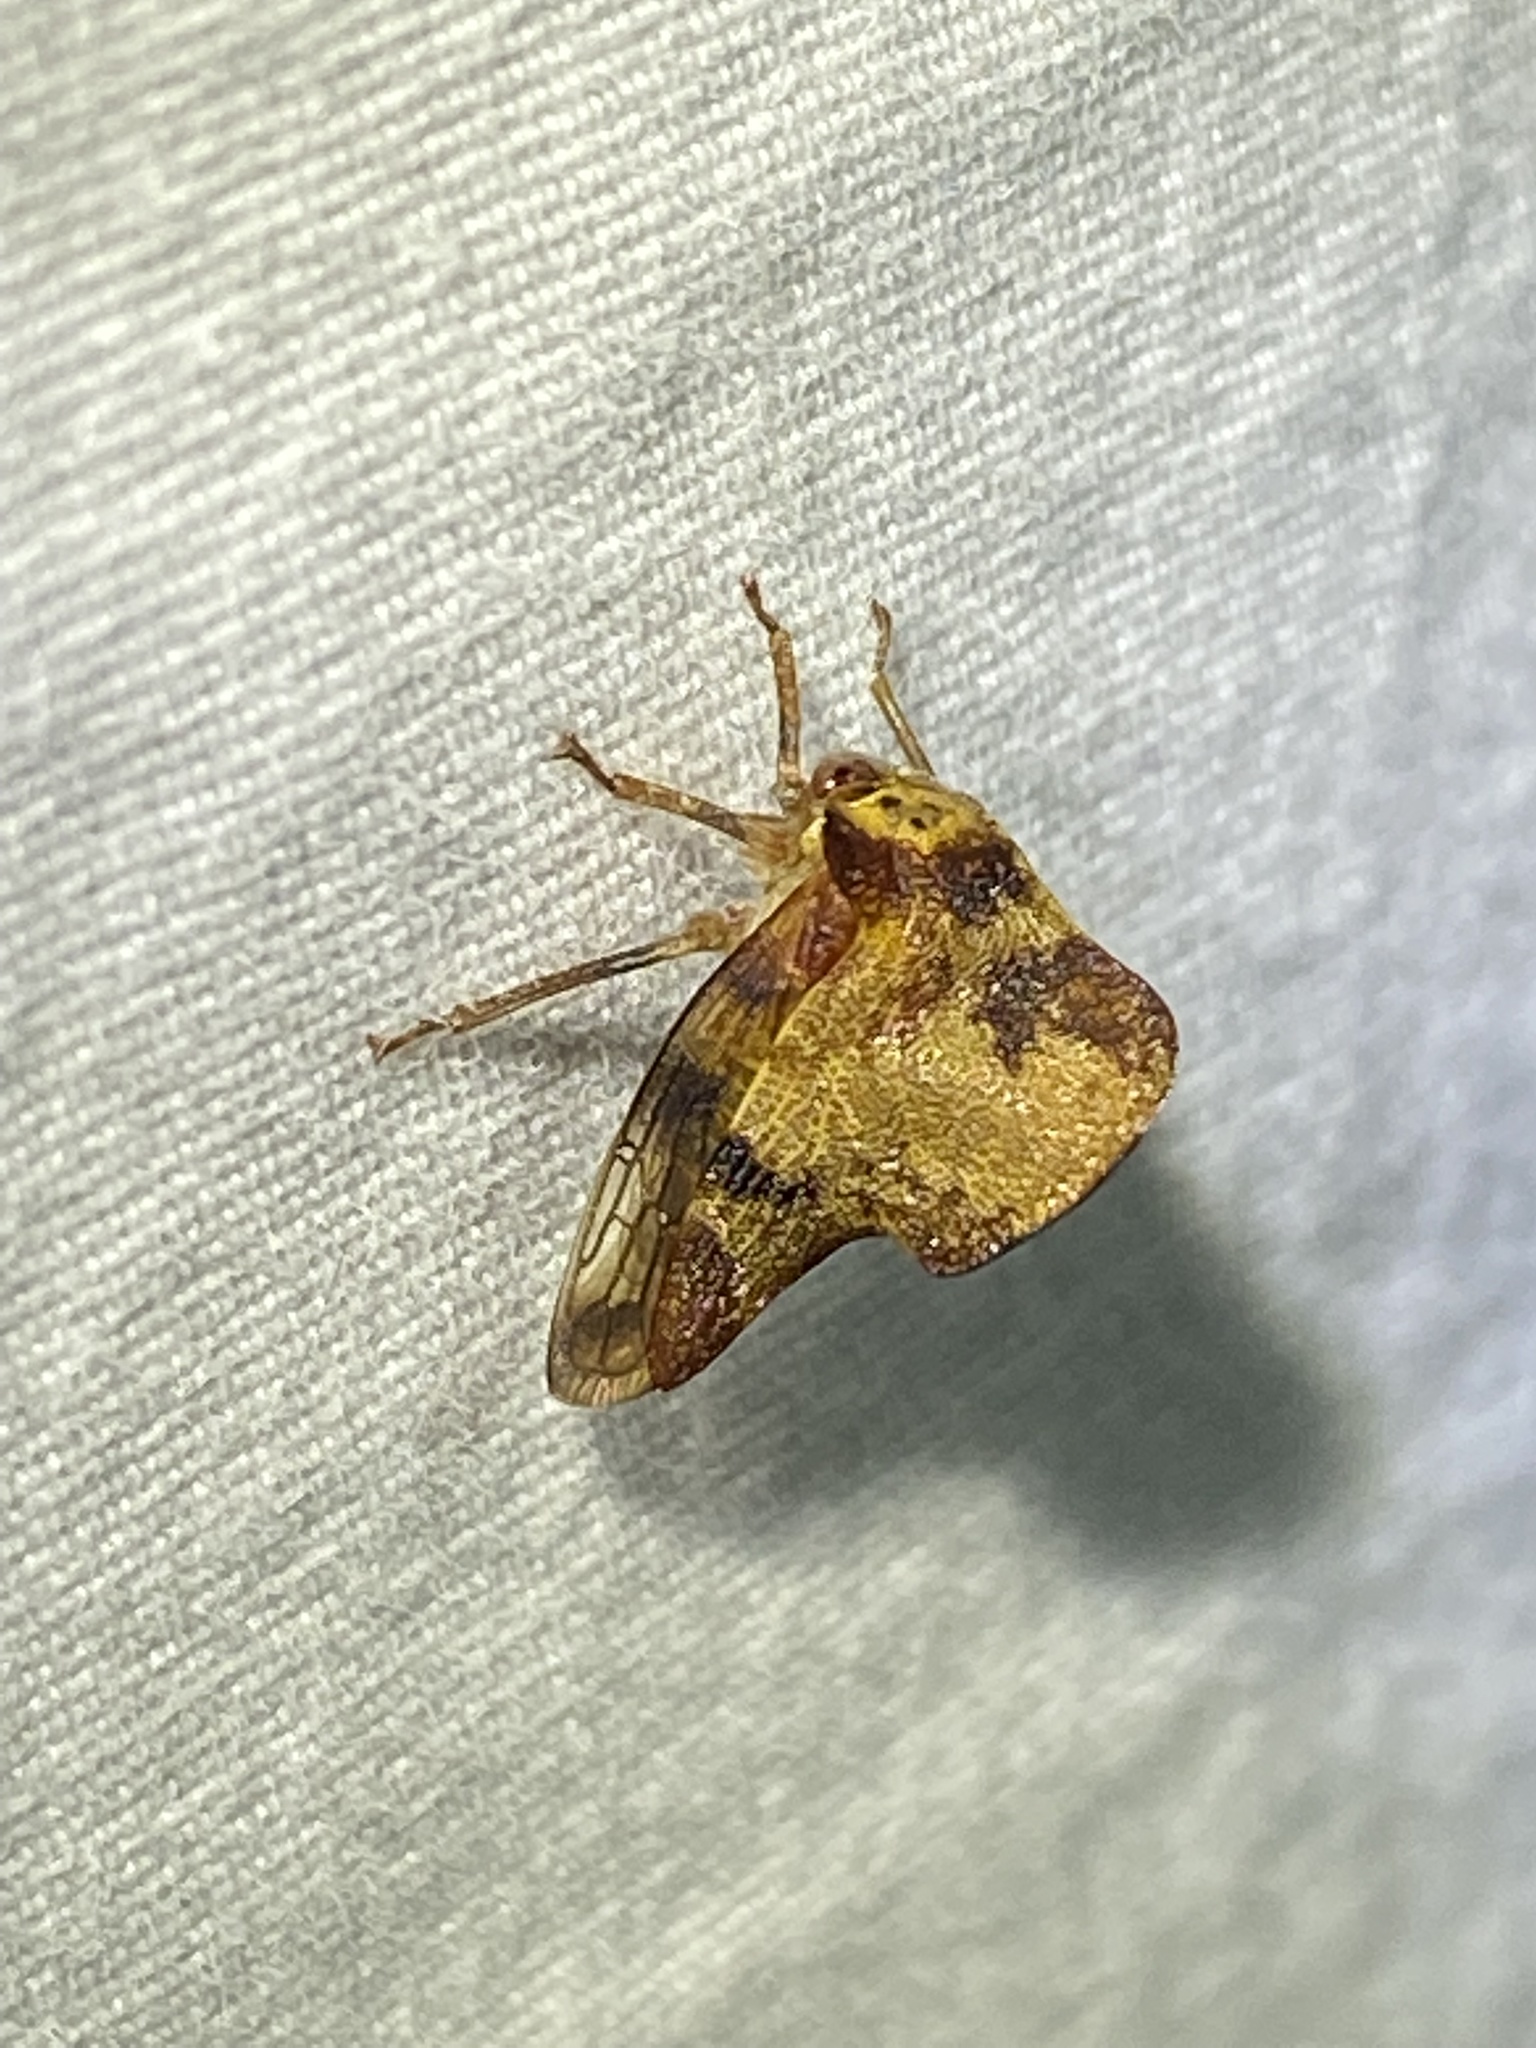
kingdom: Animalia
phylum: Arthropoda
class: Insecta
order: Hemiptera
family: Membracidae
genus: Telamona
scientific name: Telamona tristis
